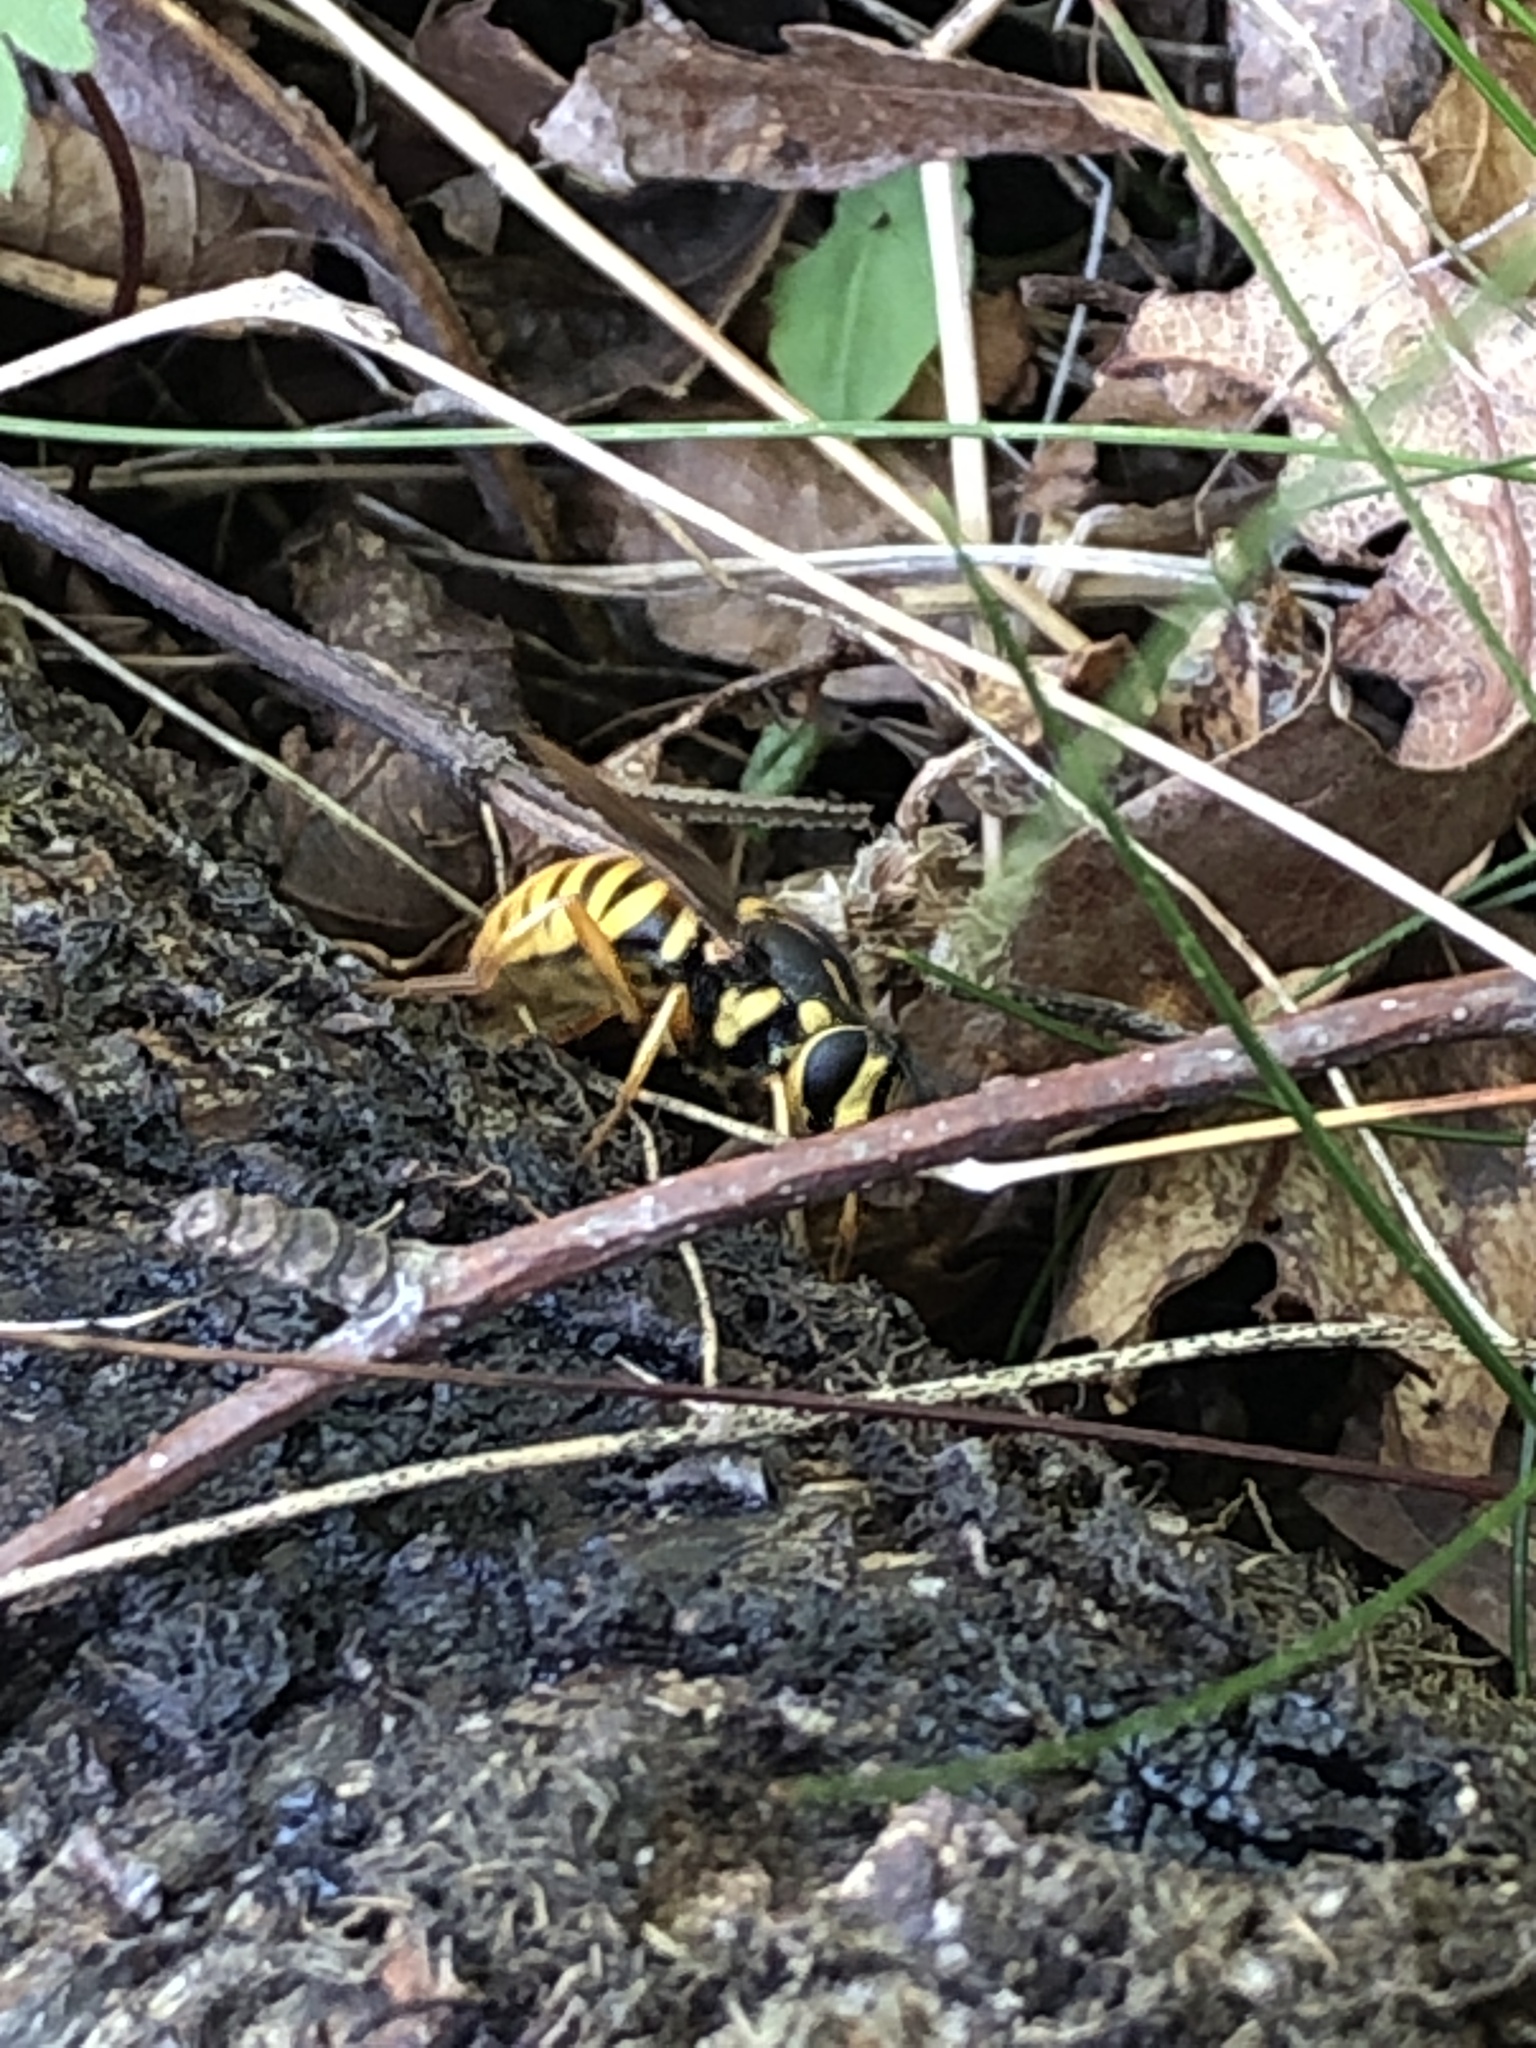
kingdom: Animalia
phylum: Arthropoda
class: Insecta
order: Diptera
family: Syrphidae
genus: Sphecomyia
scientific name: Sphecomyia vittata
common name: Long-horned yellowjacket fly
